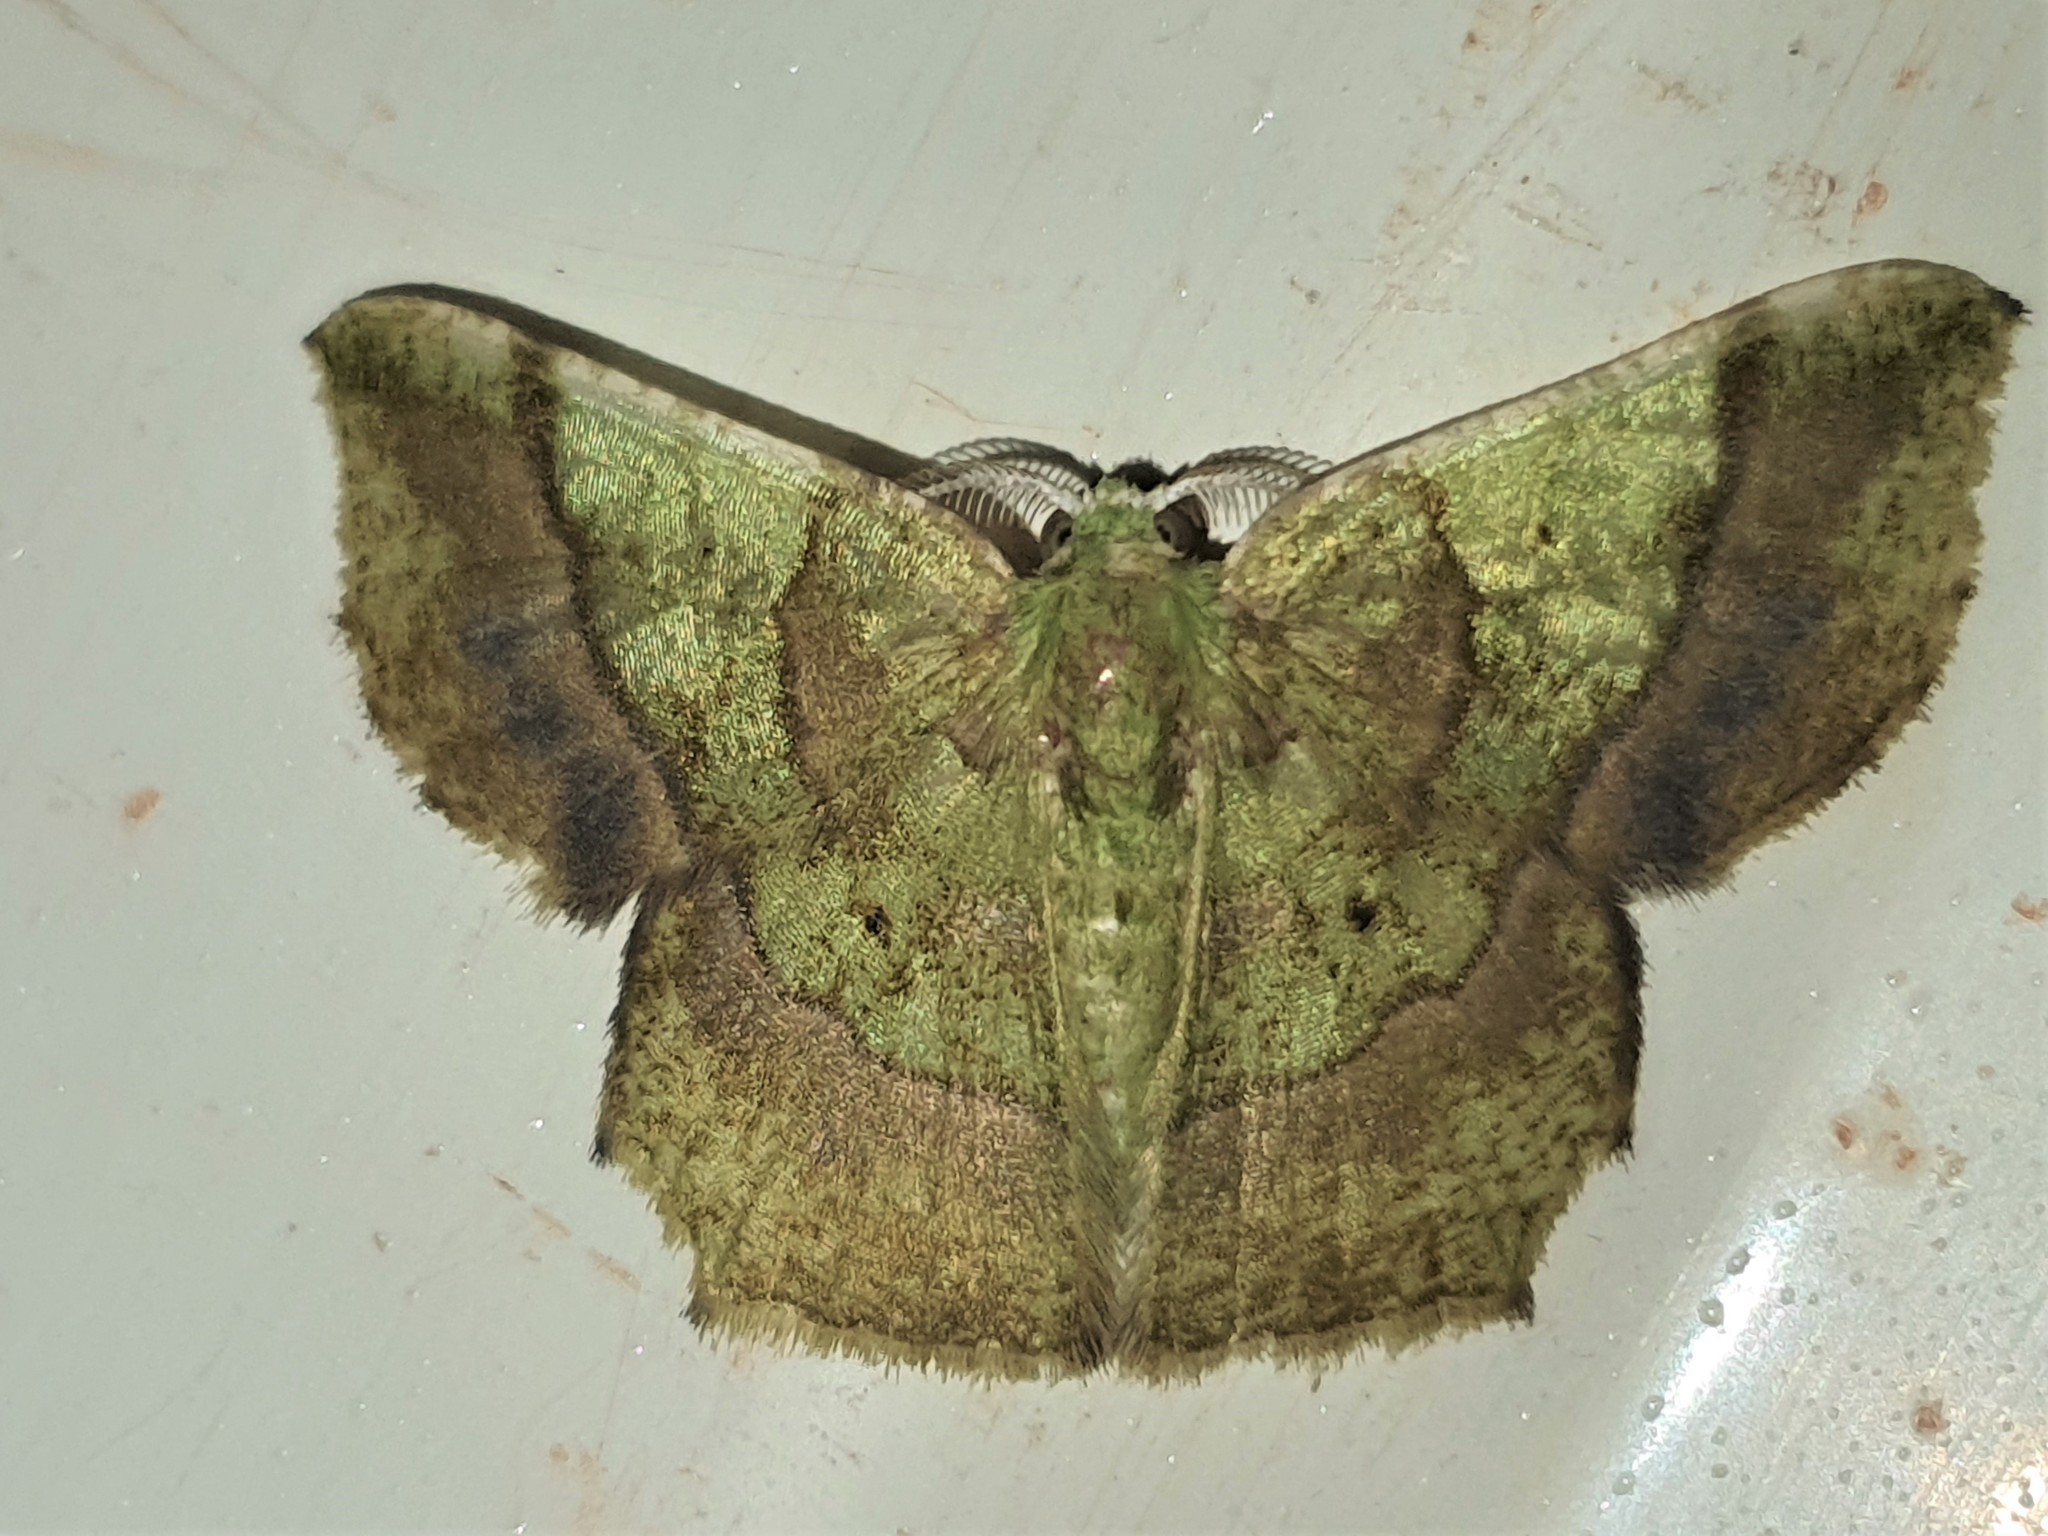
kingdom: Animalia
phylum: Arthropoda
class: Insecta
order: Lepidoptera
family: Geometridae
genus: Neagathia
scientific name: Neagathia corruptata
